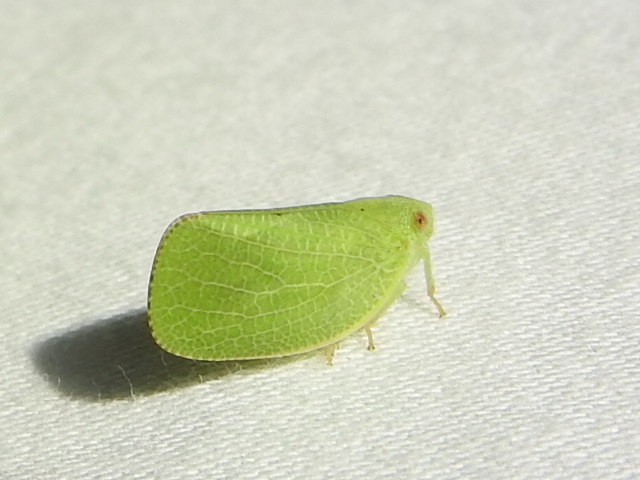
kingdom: Animalia
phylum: Arthropoda
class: Insecta
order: Hemiptera
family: Acanaloniidae
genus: Acanalonia
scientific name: Acanalonia conica
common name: Green cone-headed planthopper
